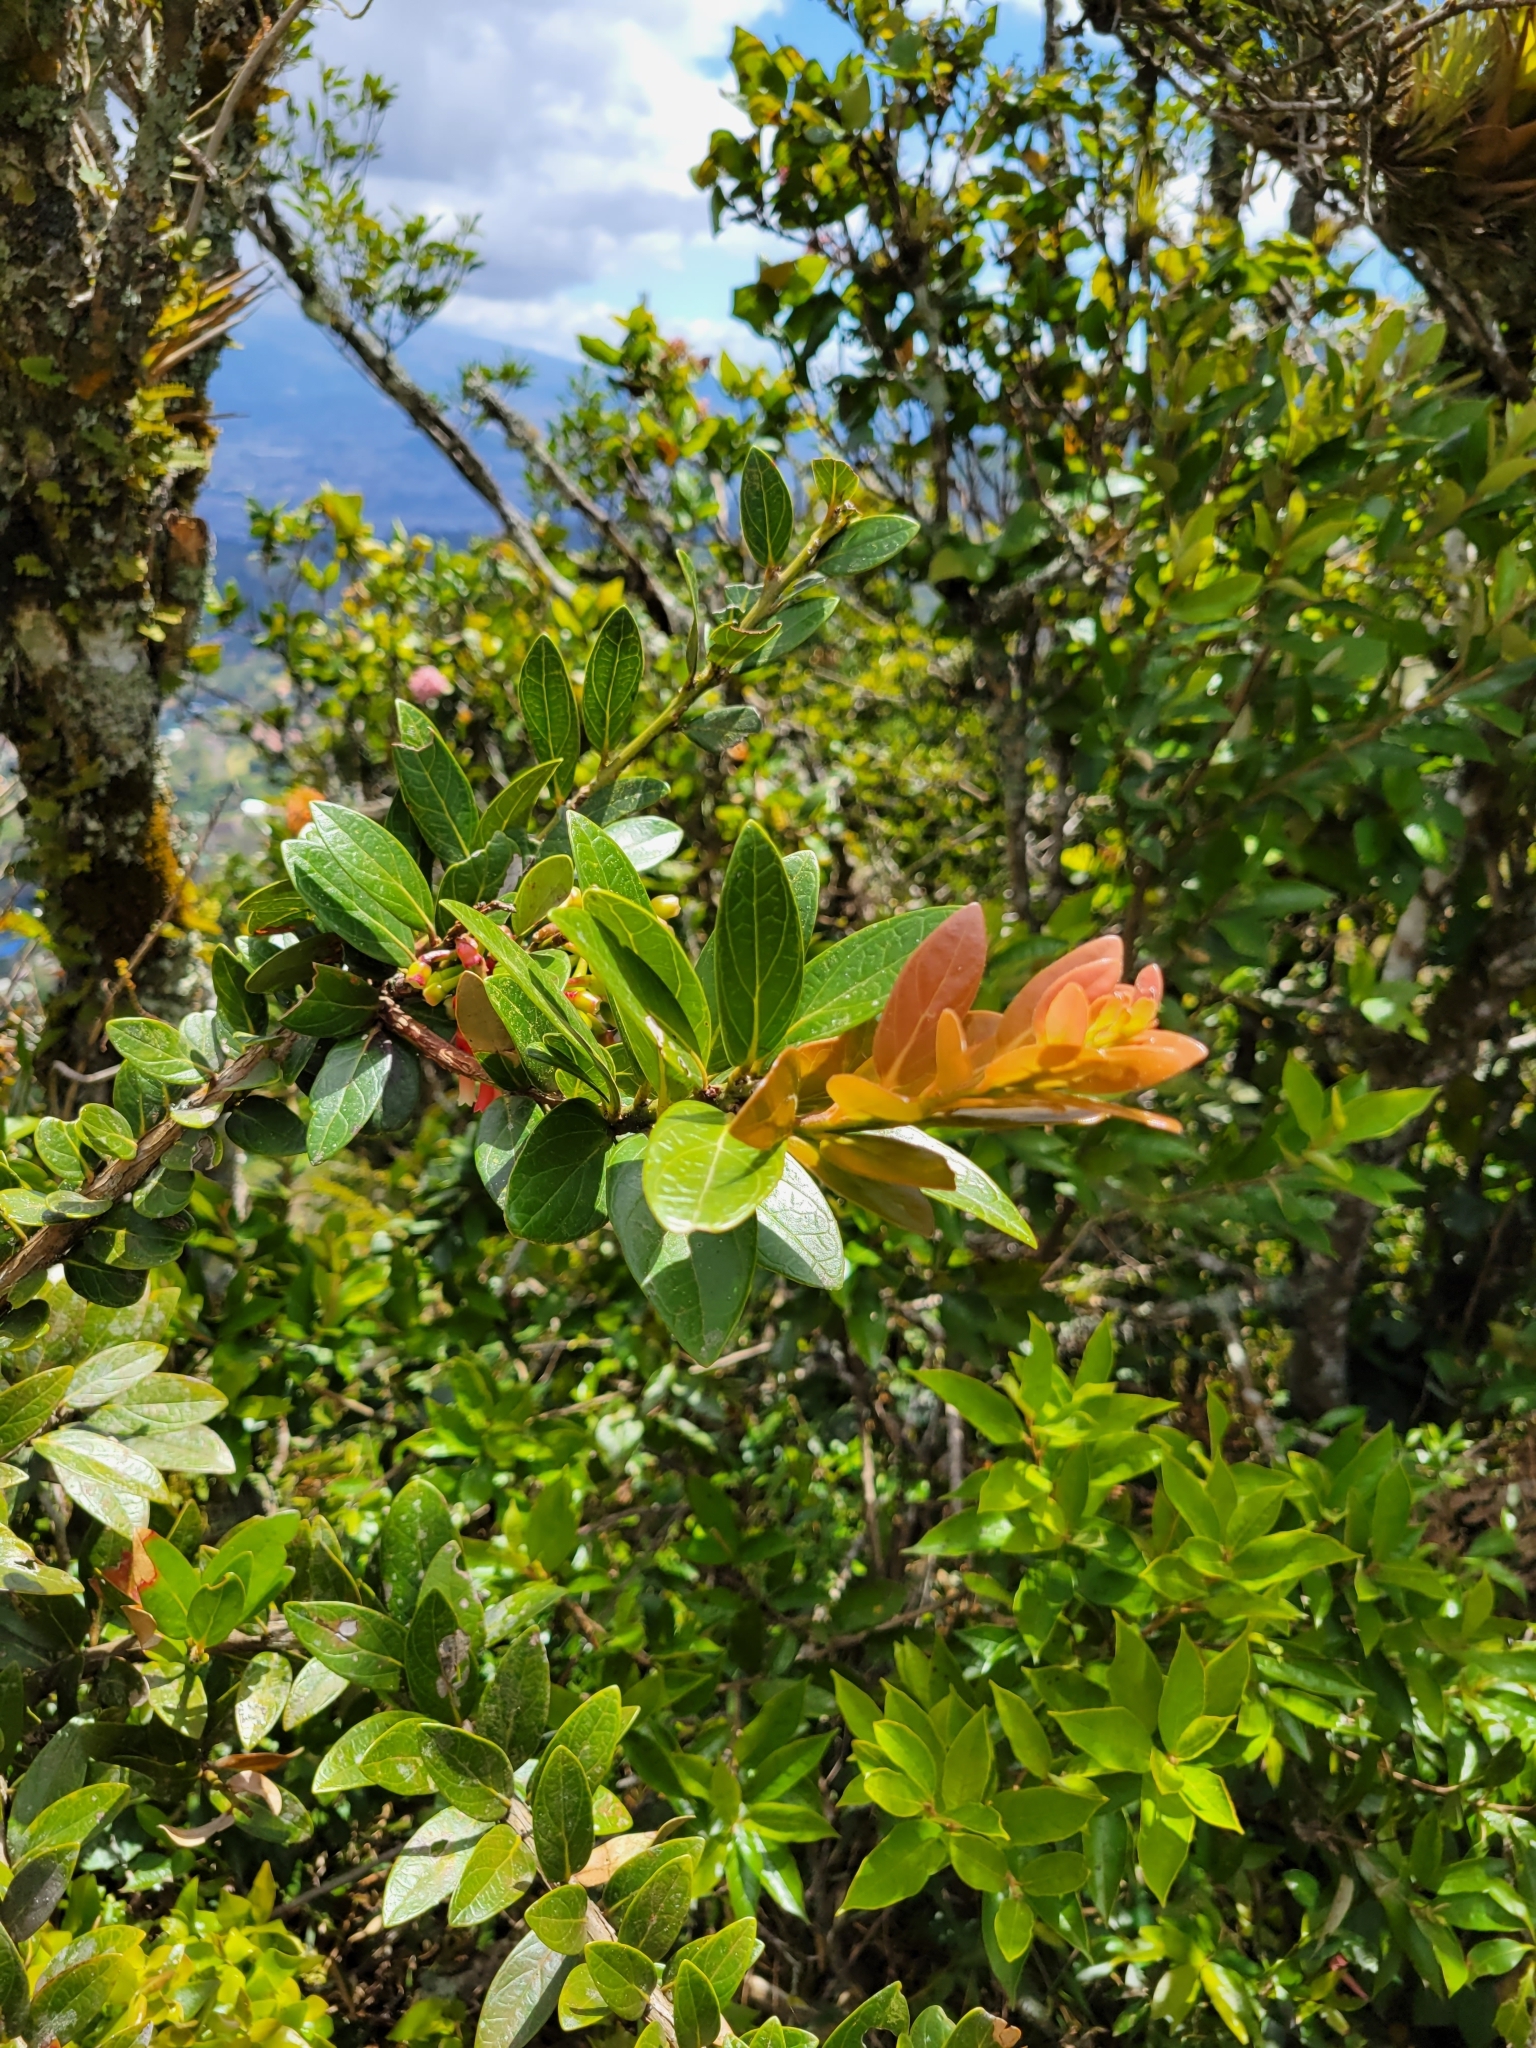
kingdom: Plantae
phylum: Tracheophyta
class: Magnoliopsida
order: Ericales
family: Ericaceae
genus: Macleania
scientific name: Macleania rupestris
